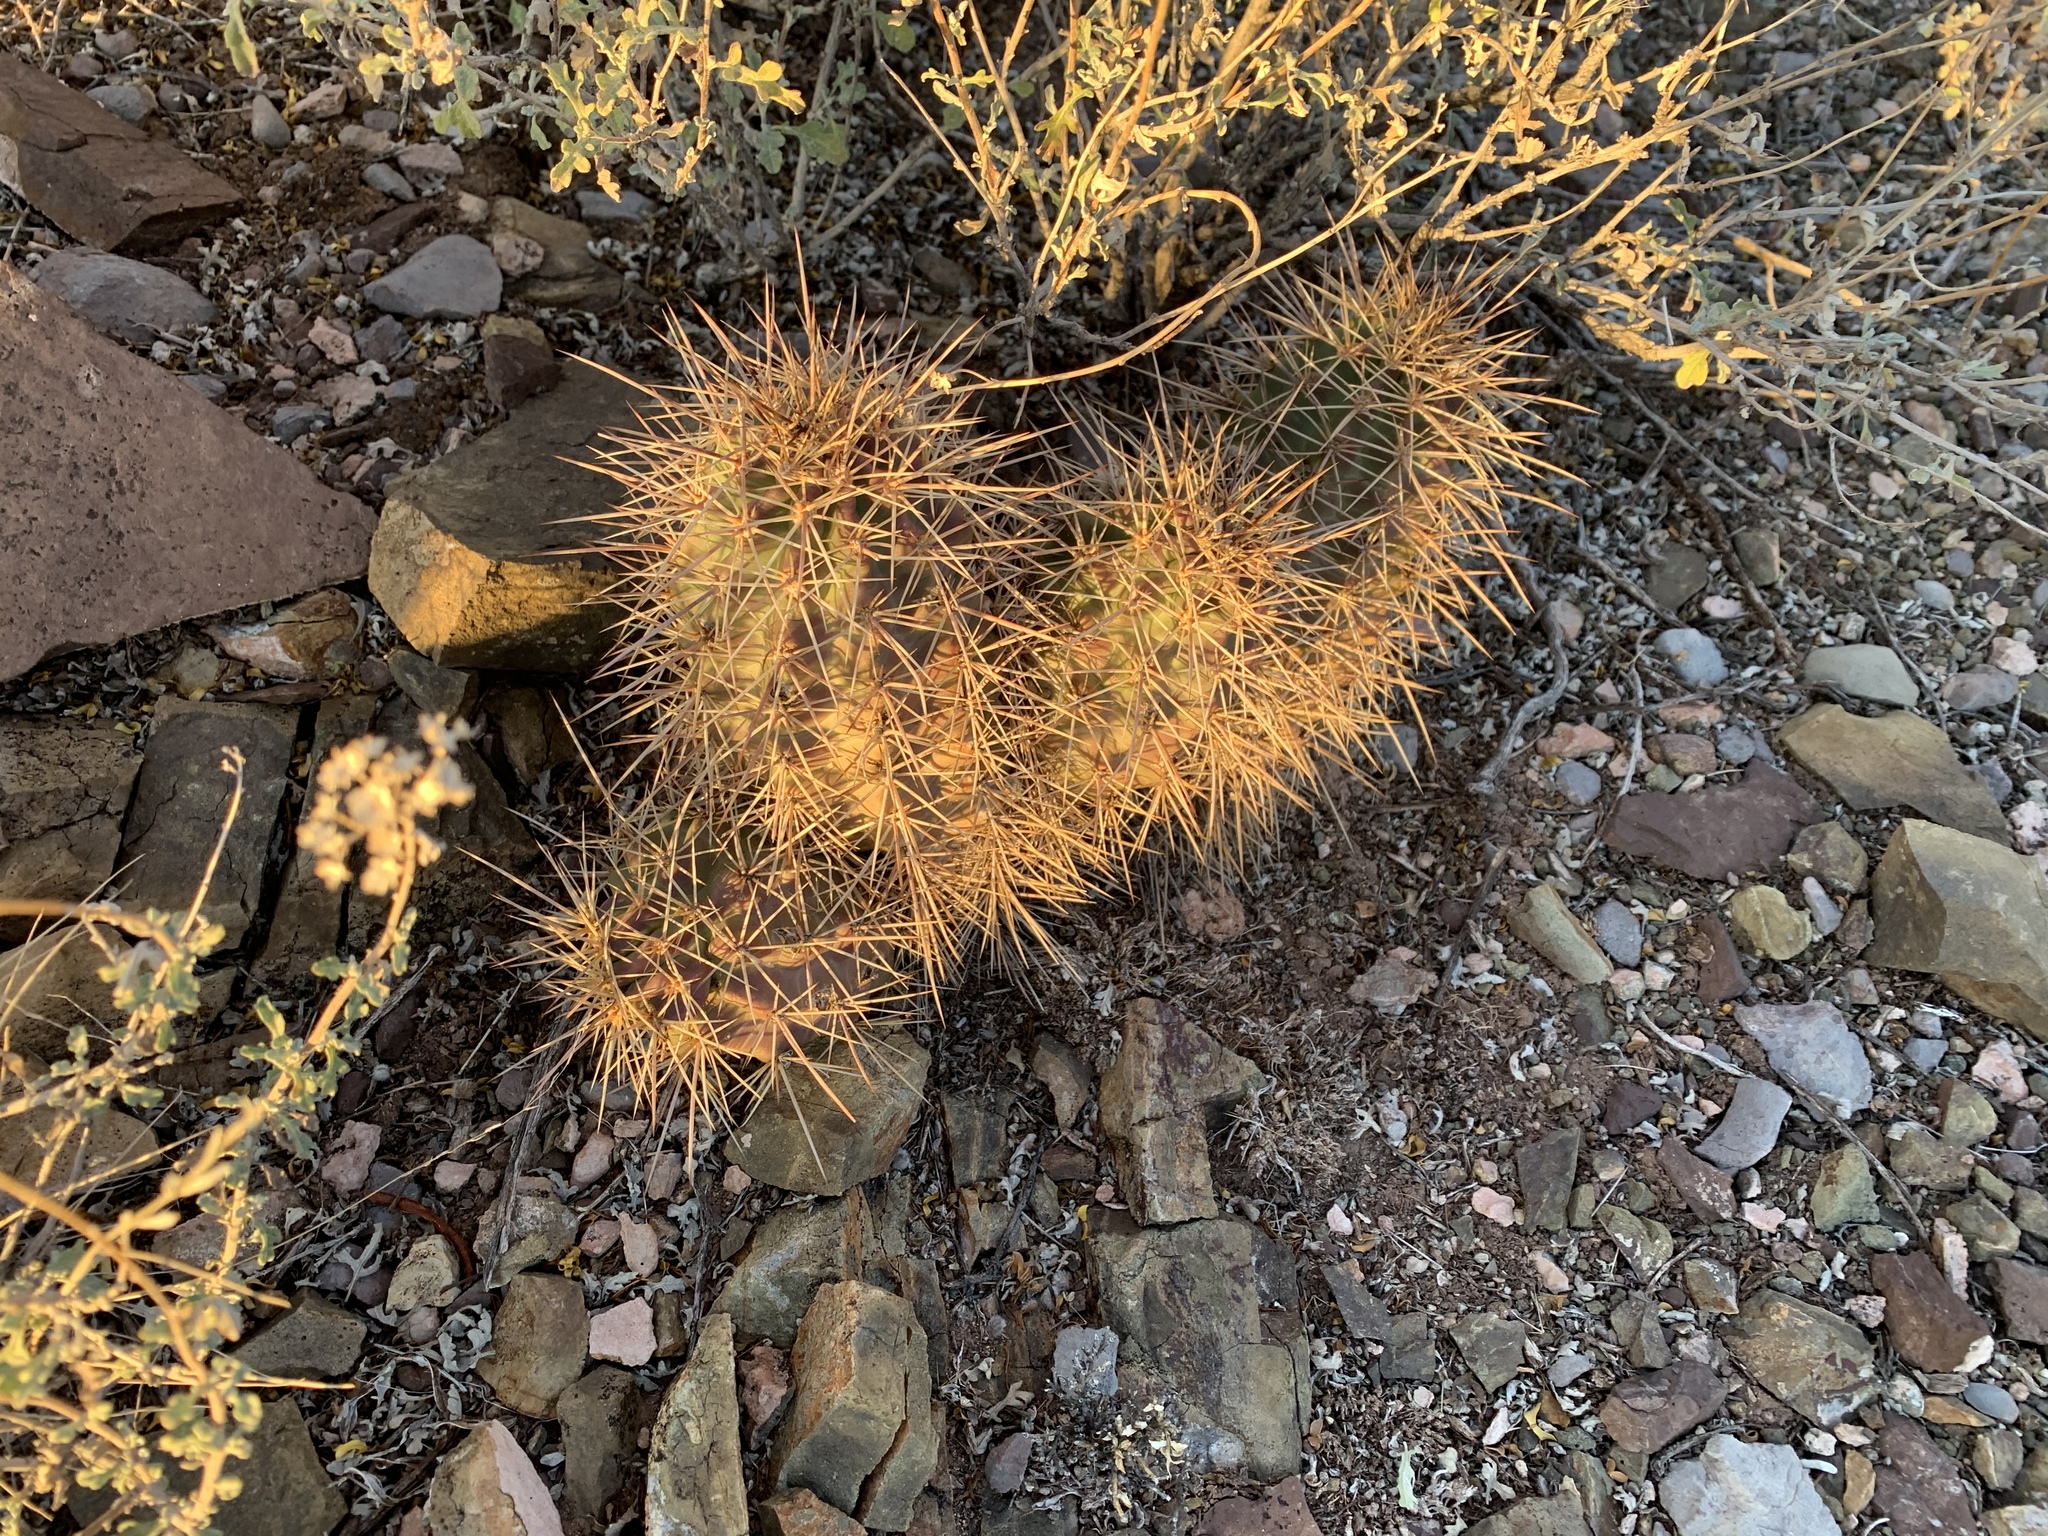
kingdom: Plantae
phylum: Tracheophyta
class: Magnoliopsida
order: Caryophyllales
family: Cactaceae
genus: Echinocereus
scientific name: Echinocereus coccineus
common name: Scarlet hedgehog cactus
